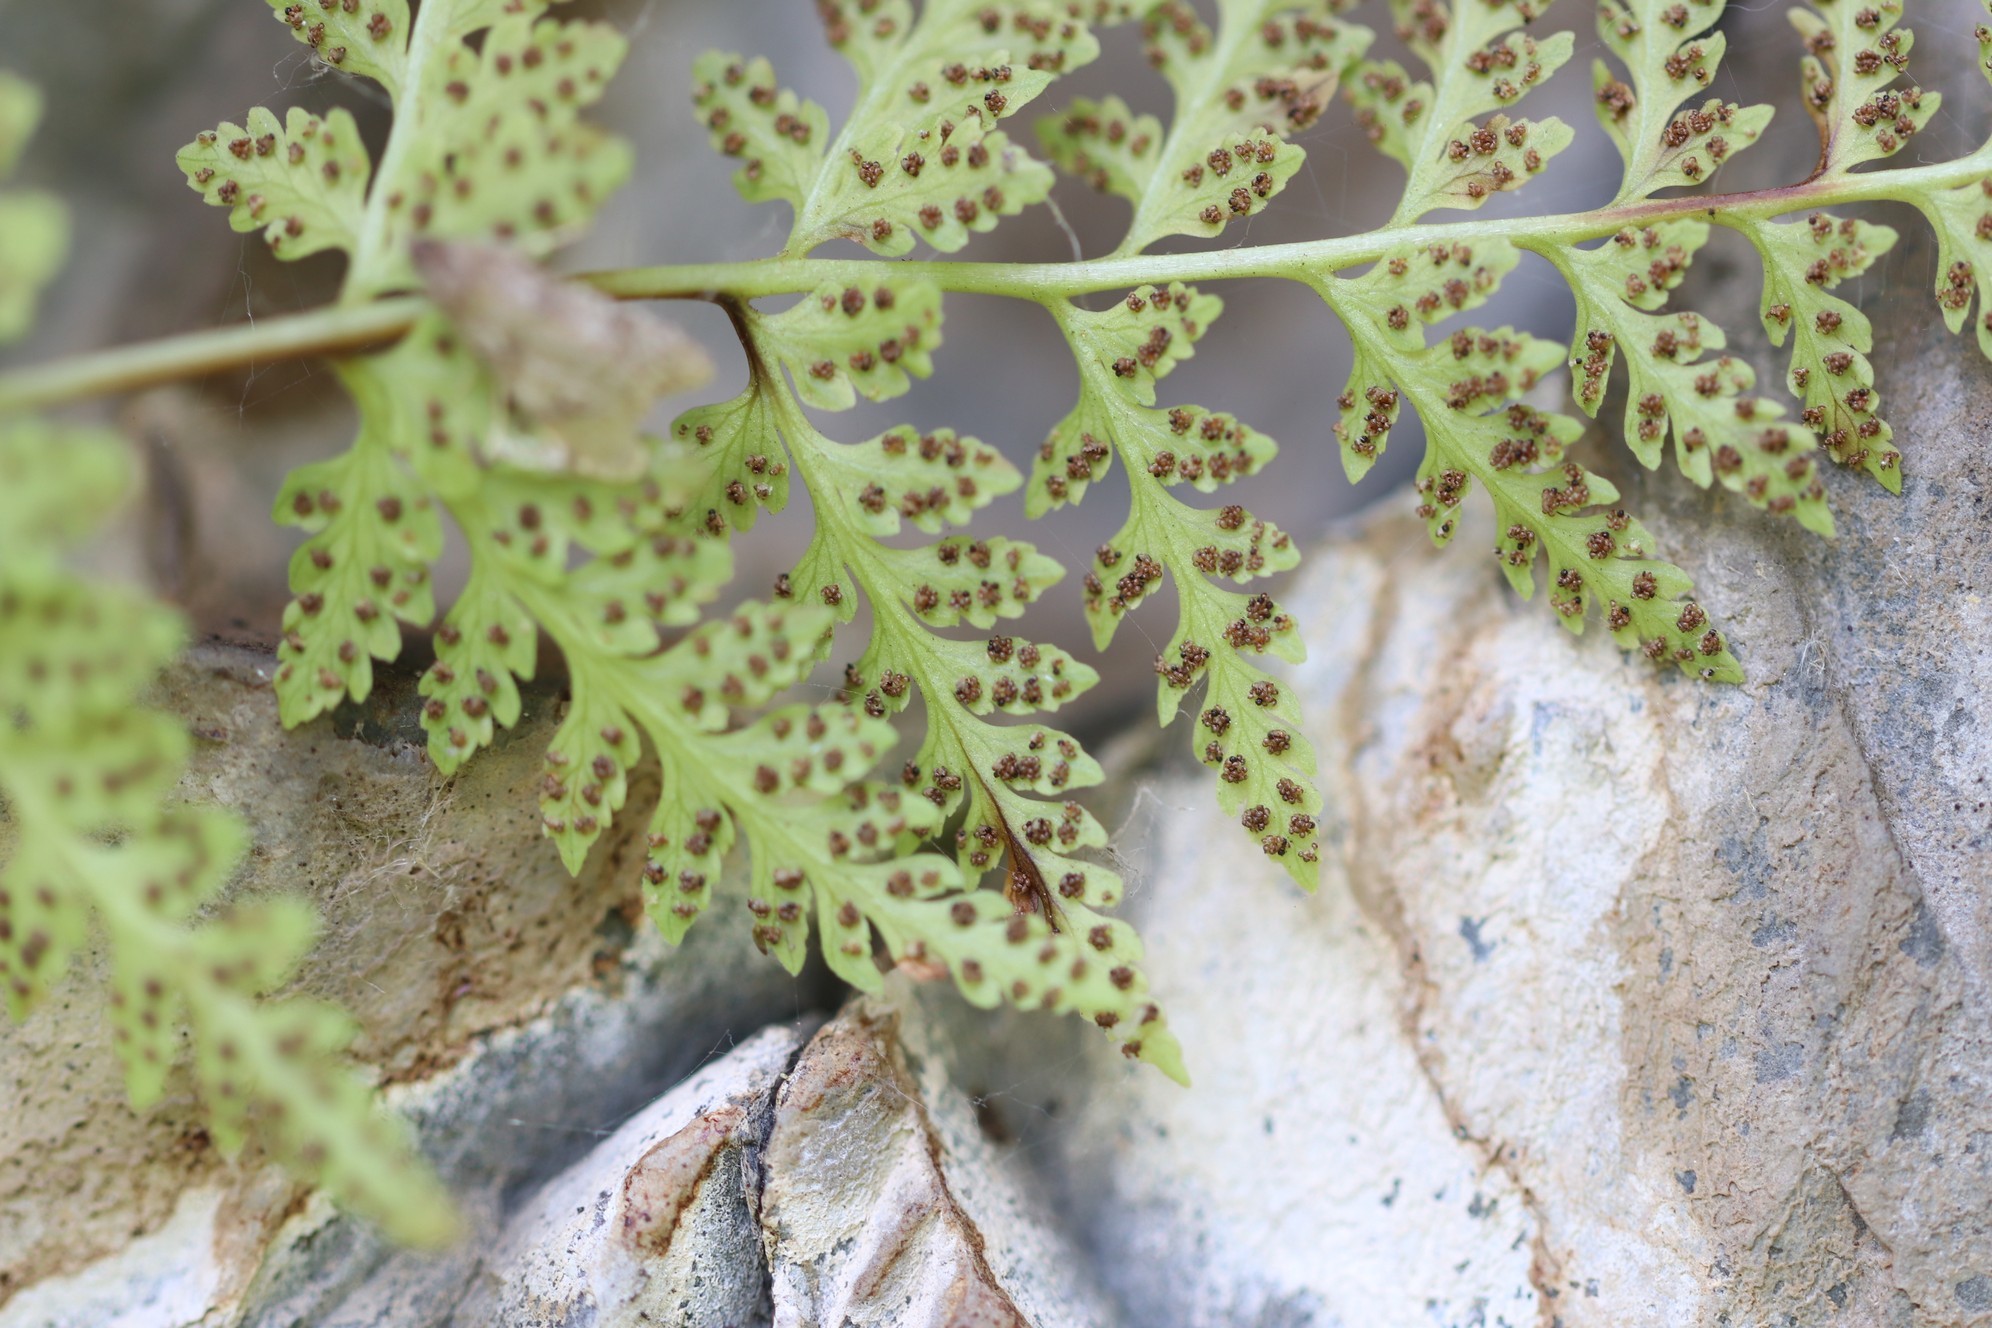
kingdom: Plantae
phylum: Tracheophyta
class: Polypodiopsida
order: Polypodiales
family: Cystopteridaceae
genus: Cystopteris
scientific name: Cystopteris fragilis
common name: Brittle bladder fern
